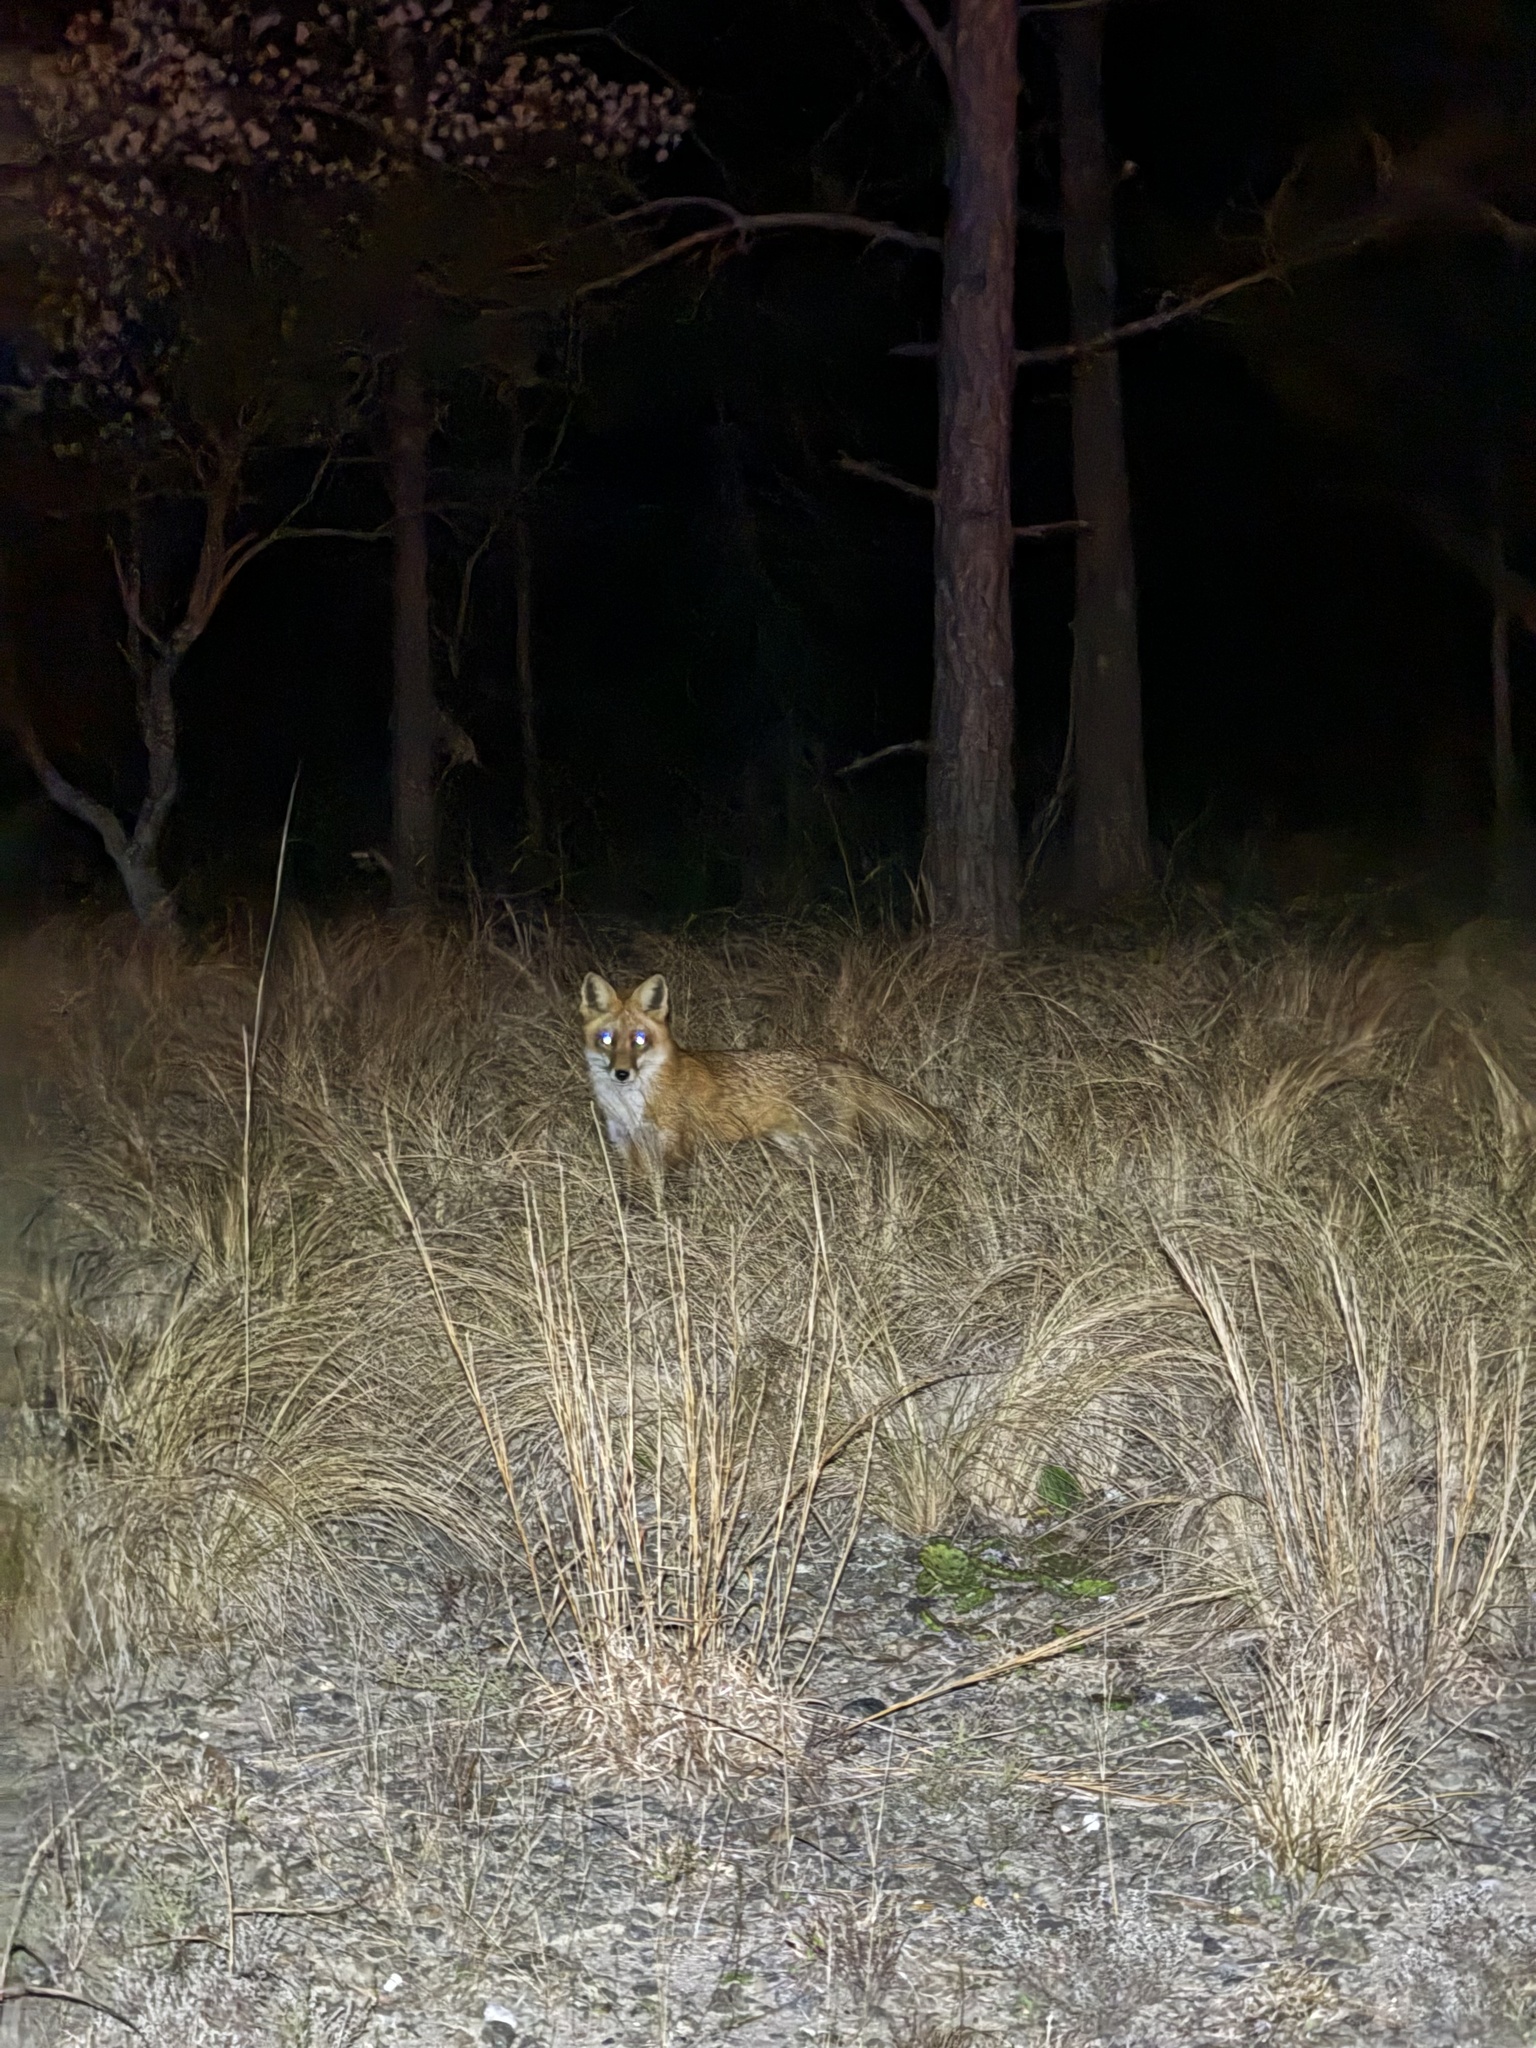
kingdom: Animalia
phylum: Chordata
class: Mammalia
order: Carnivora
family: Canidae
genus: Vulpes
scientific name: Vulpes vulpes
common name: Red fox
